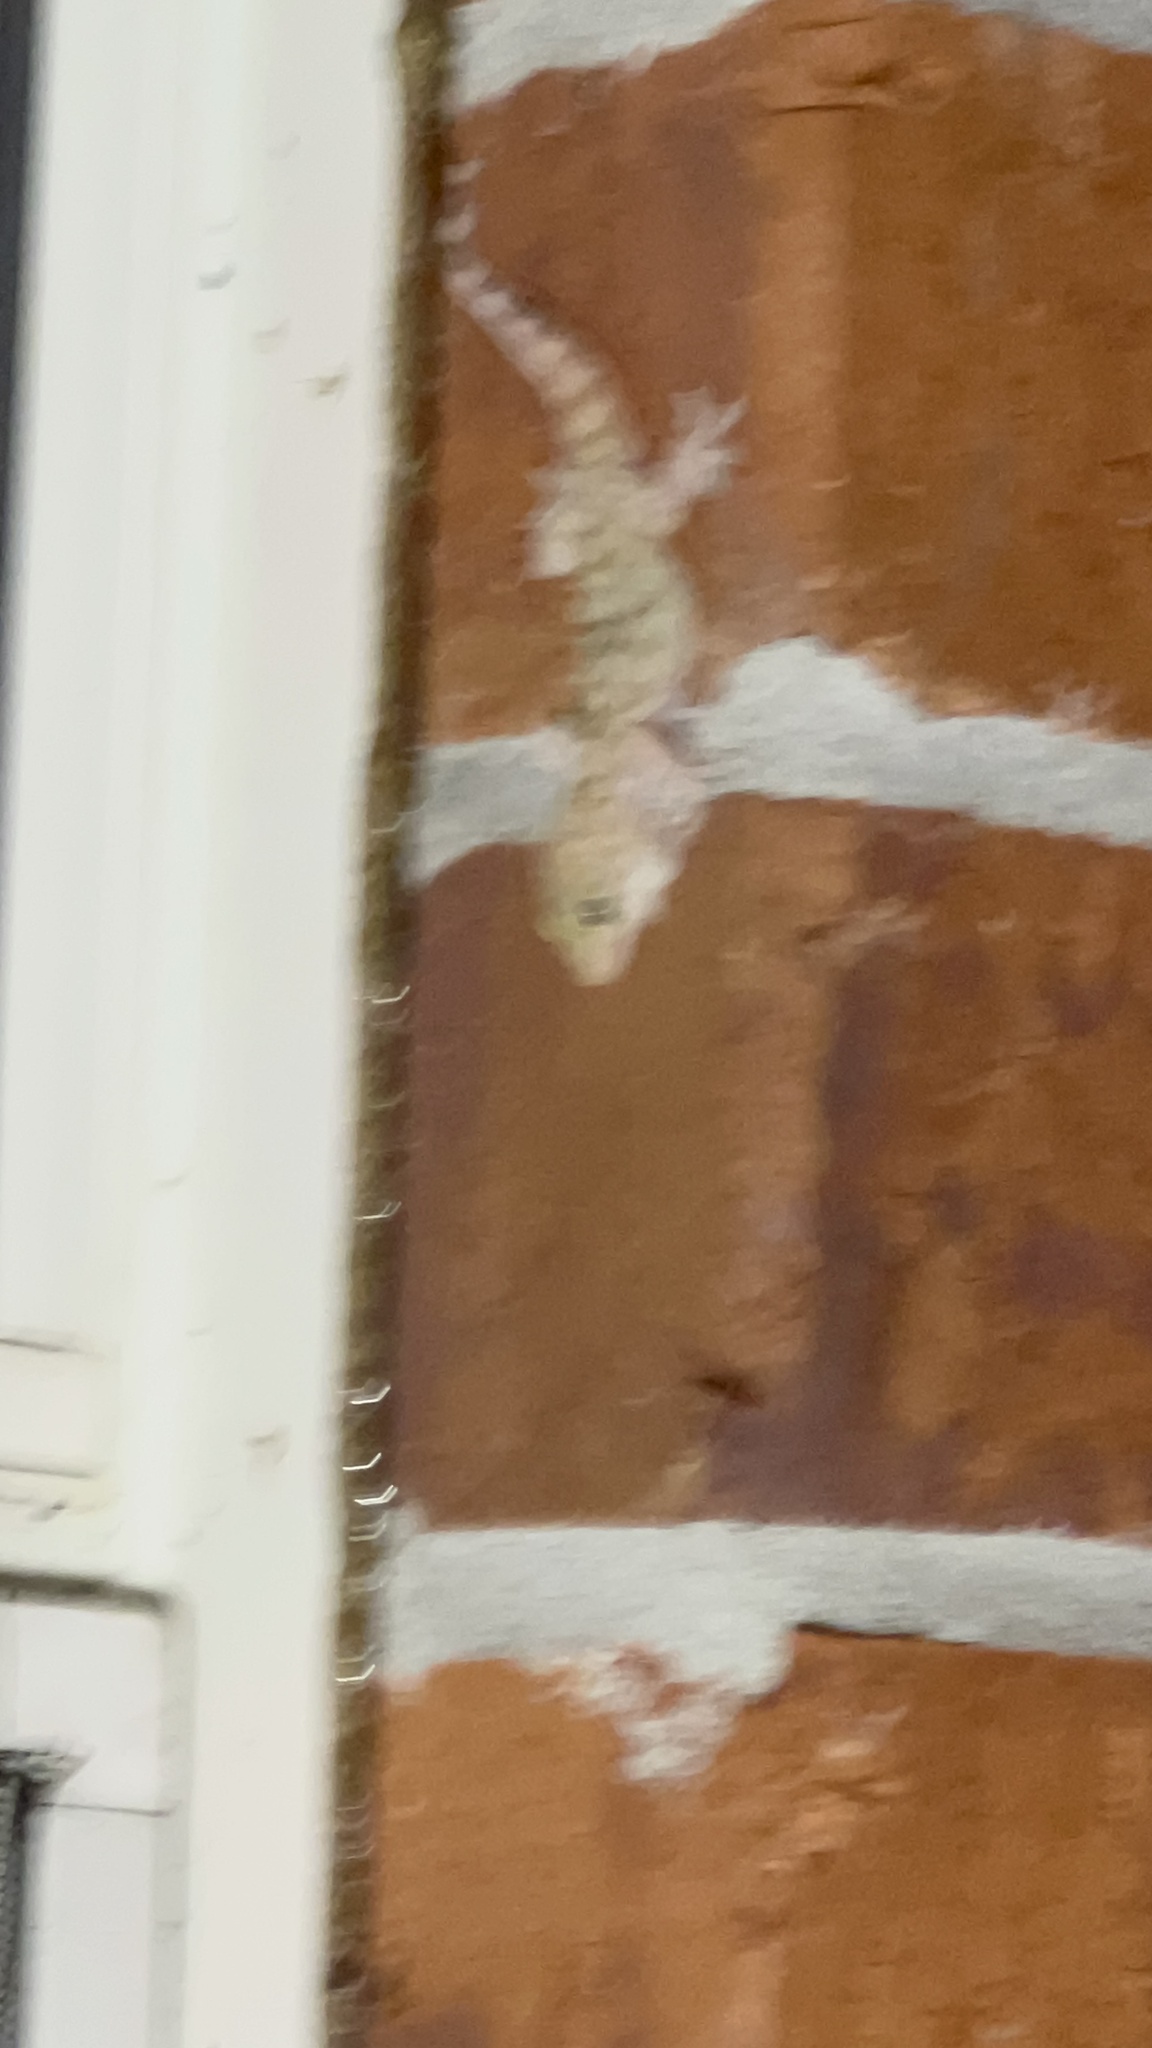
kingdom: Animalia
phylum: Chordata
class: Squamata
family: Gekkonidae
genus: Hemidactylus
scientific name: Hemidactylus turcicus
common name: Turkish gecko
